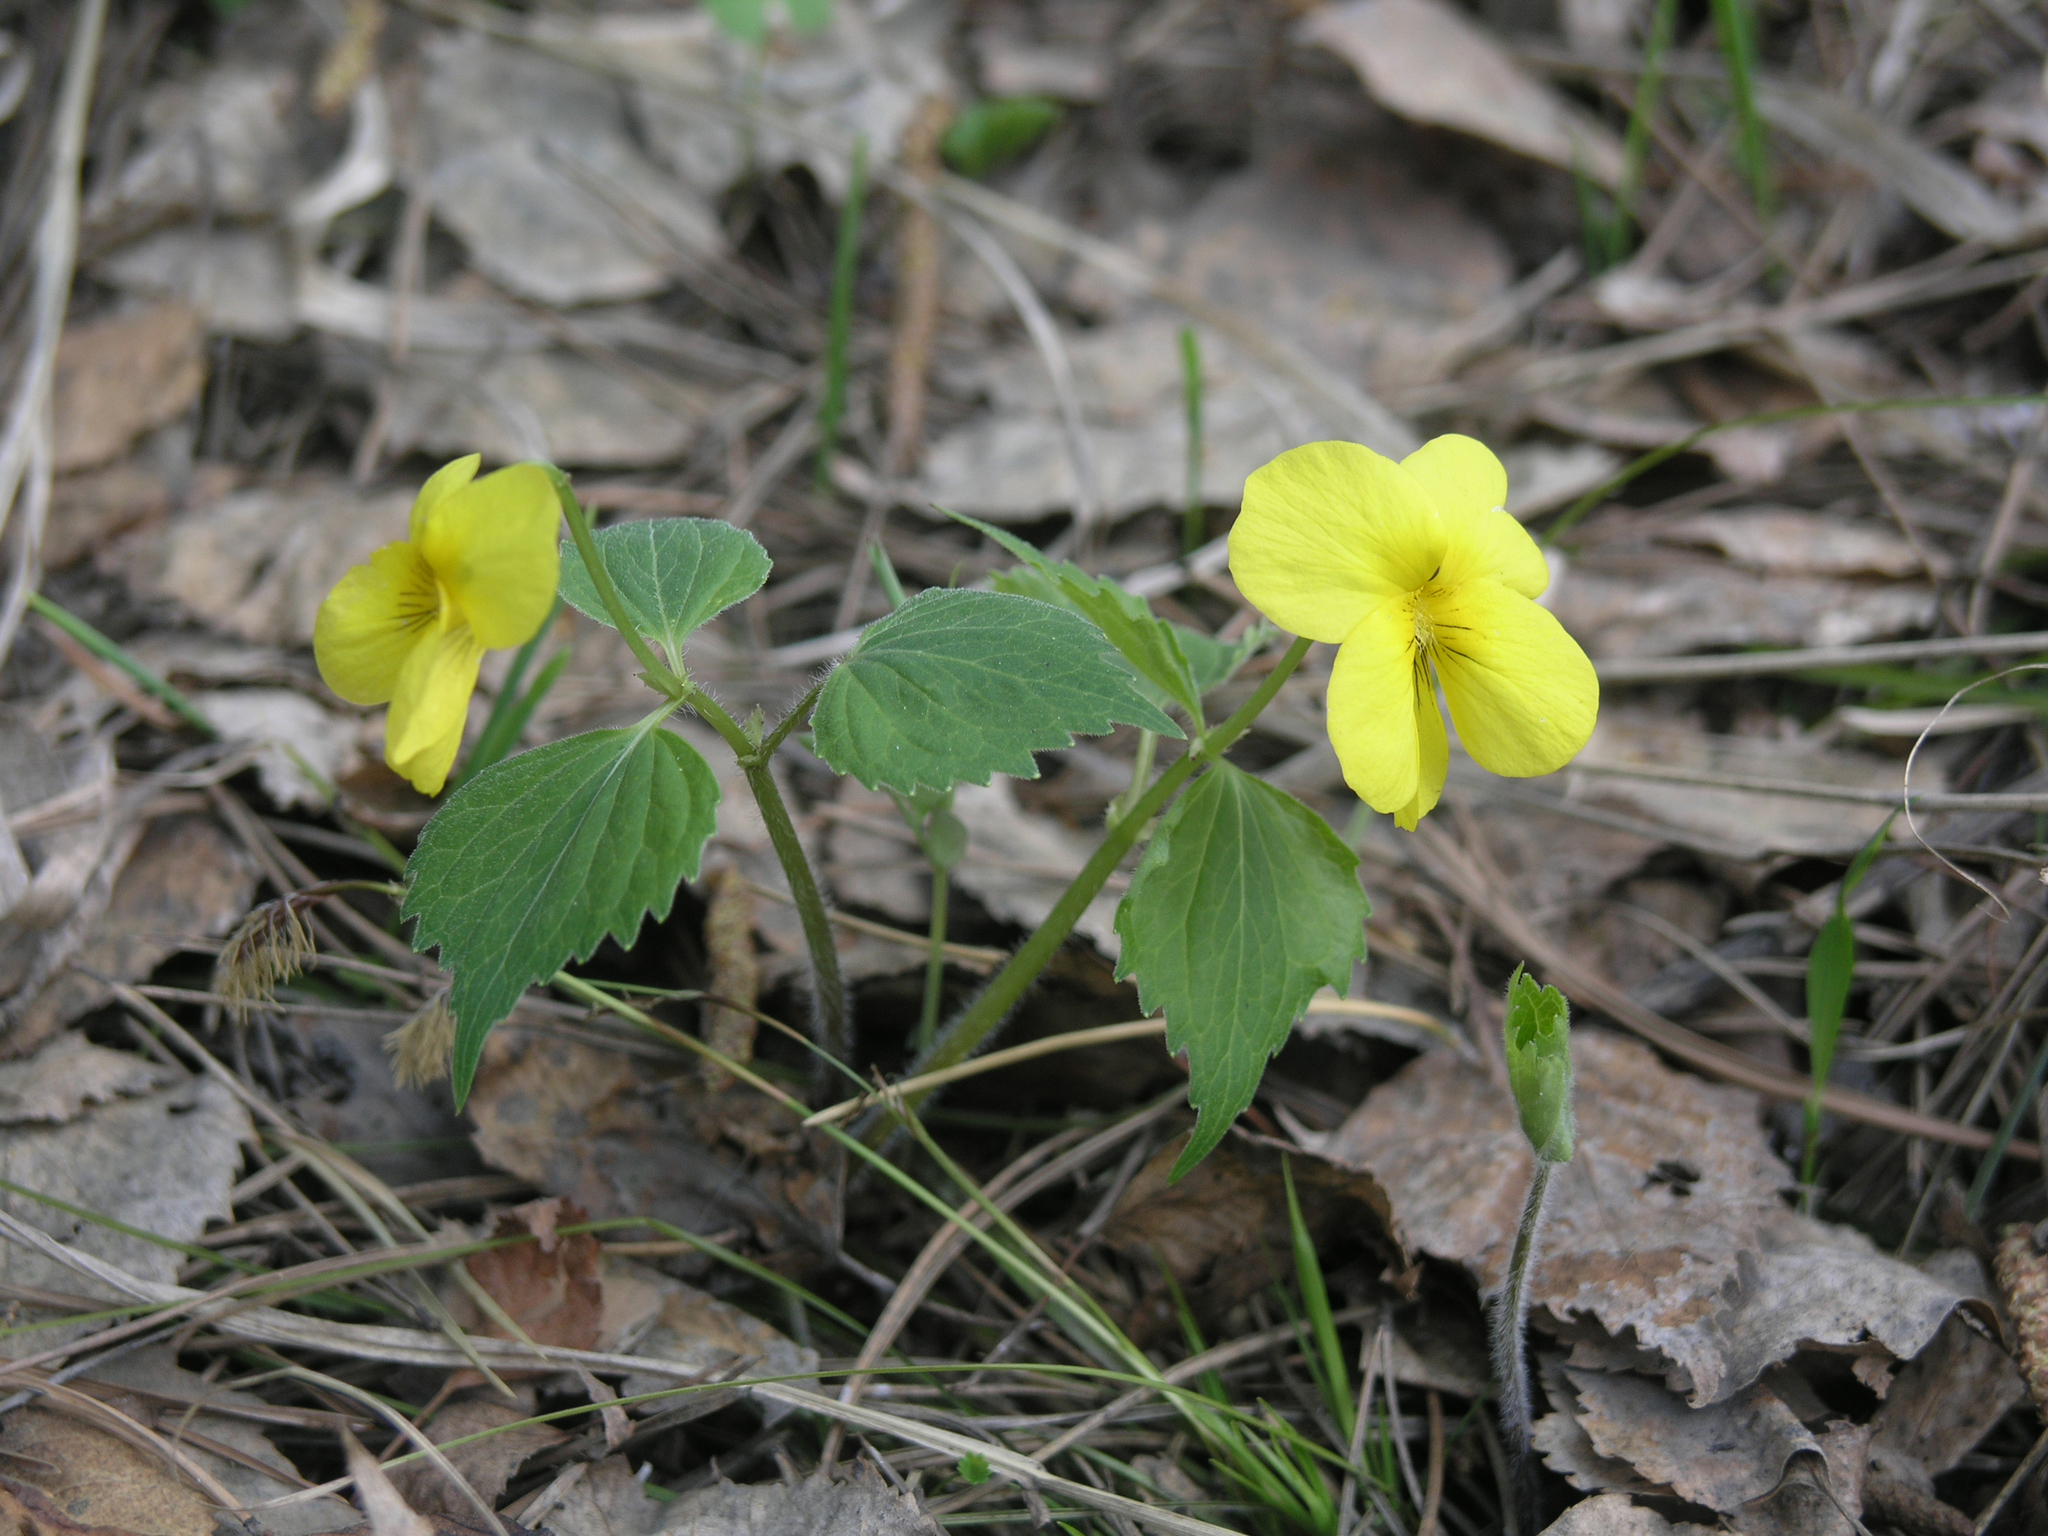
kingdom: Plantae
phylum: Tracheophyta
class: Magnoliopsida
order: Malpighiales
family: Violaceae
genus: Viola
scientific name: Viola uniflora
